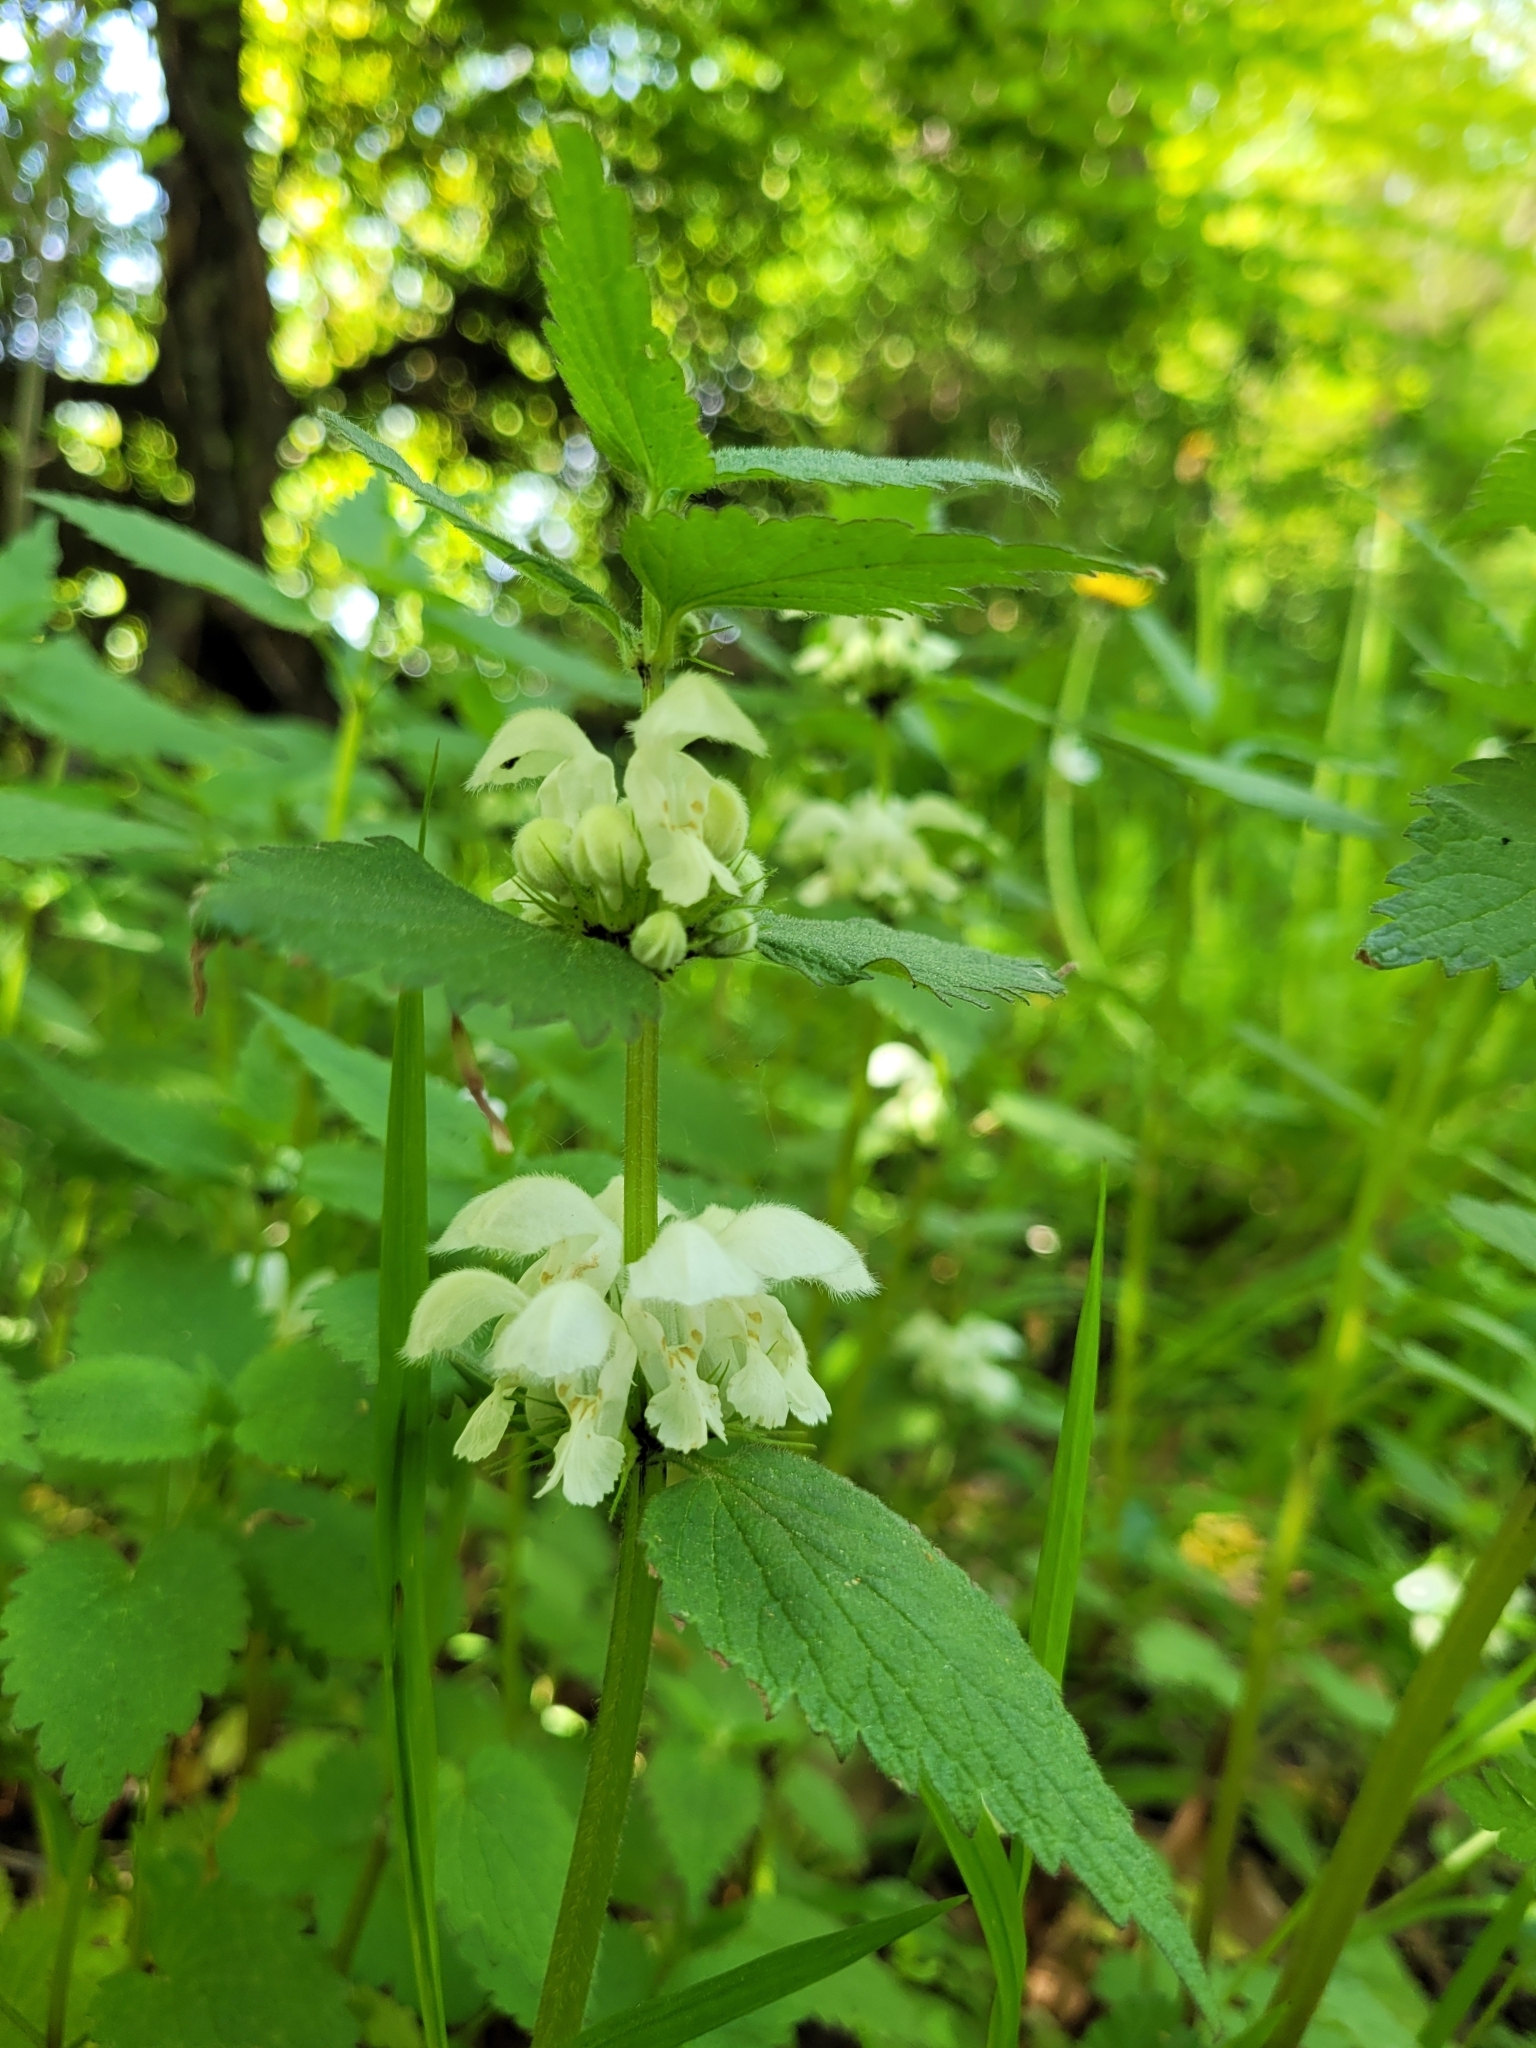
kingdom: Plantae
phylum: Tracheophyta
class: Magnoliopsida
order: Lamiales
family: Lamiaceae
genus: Lamium
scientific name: Lamium album
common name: White dead-nettle
